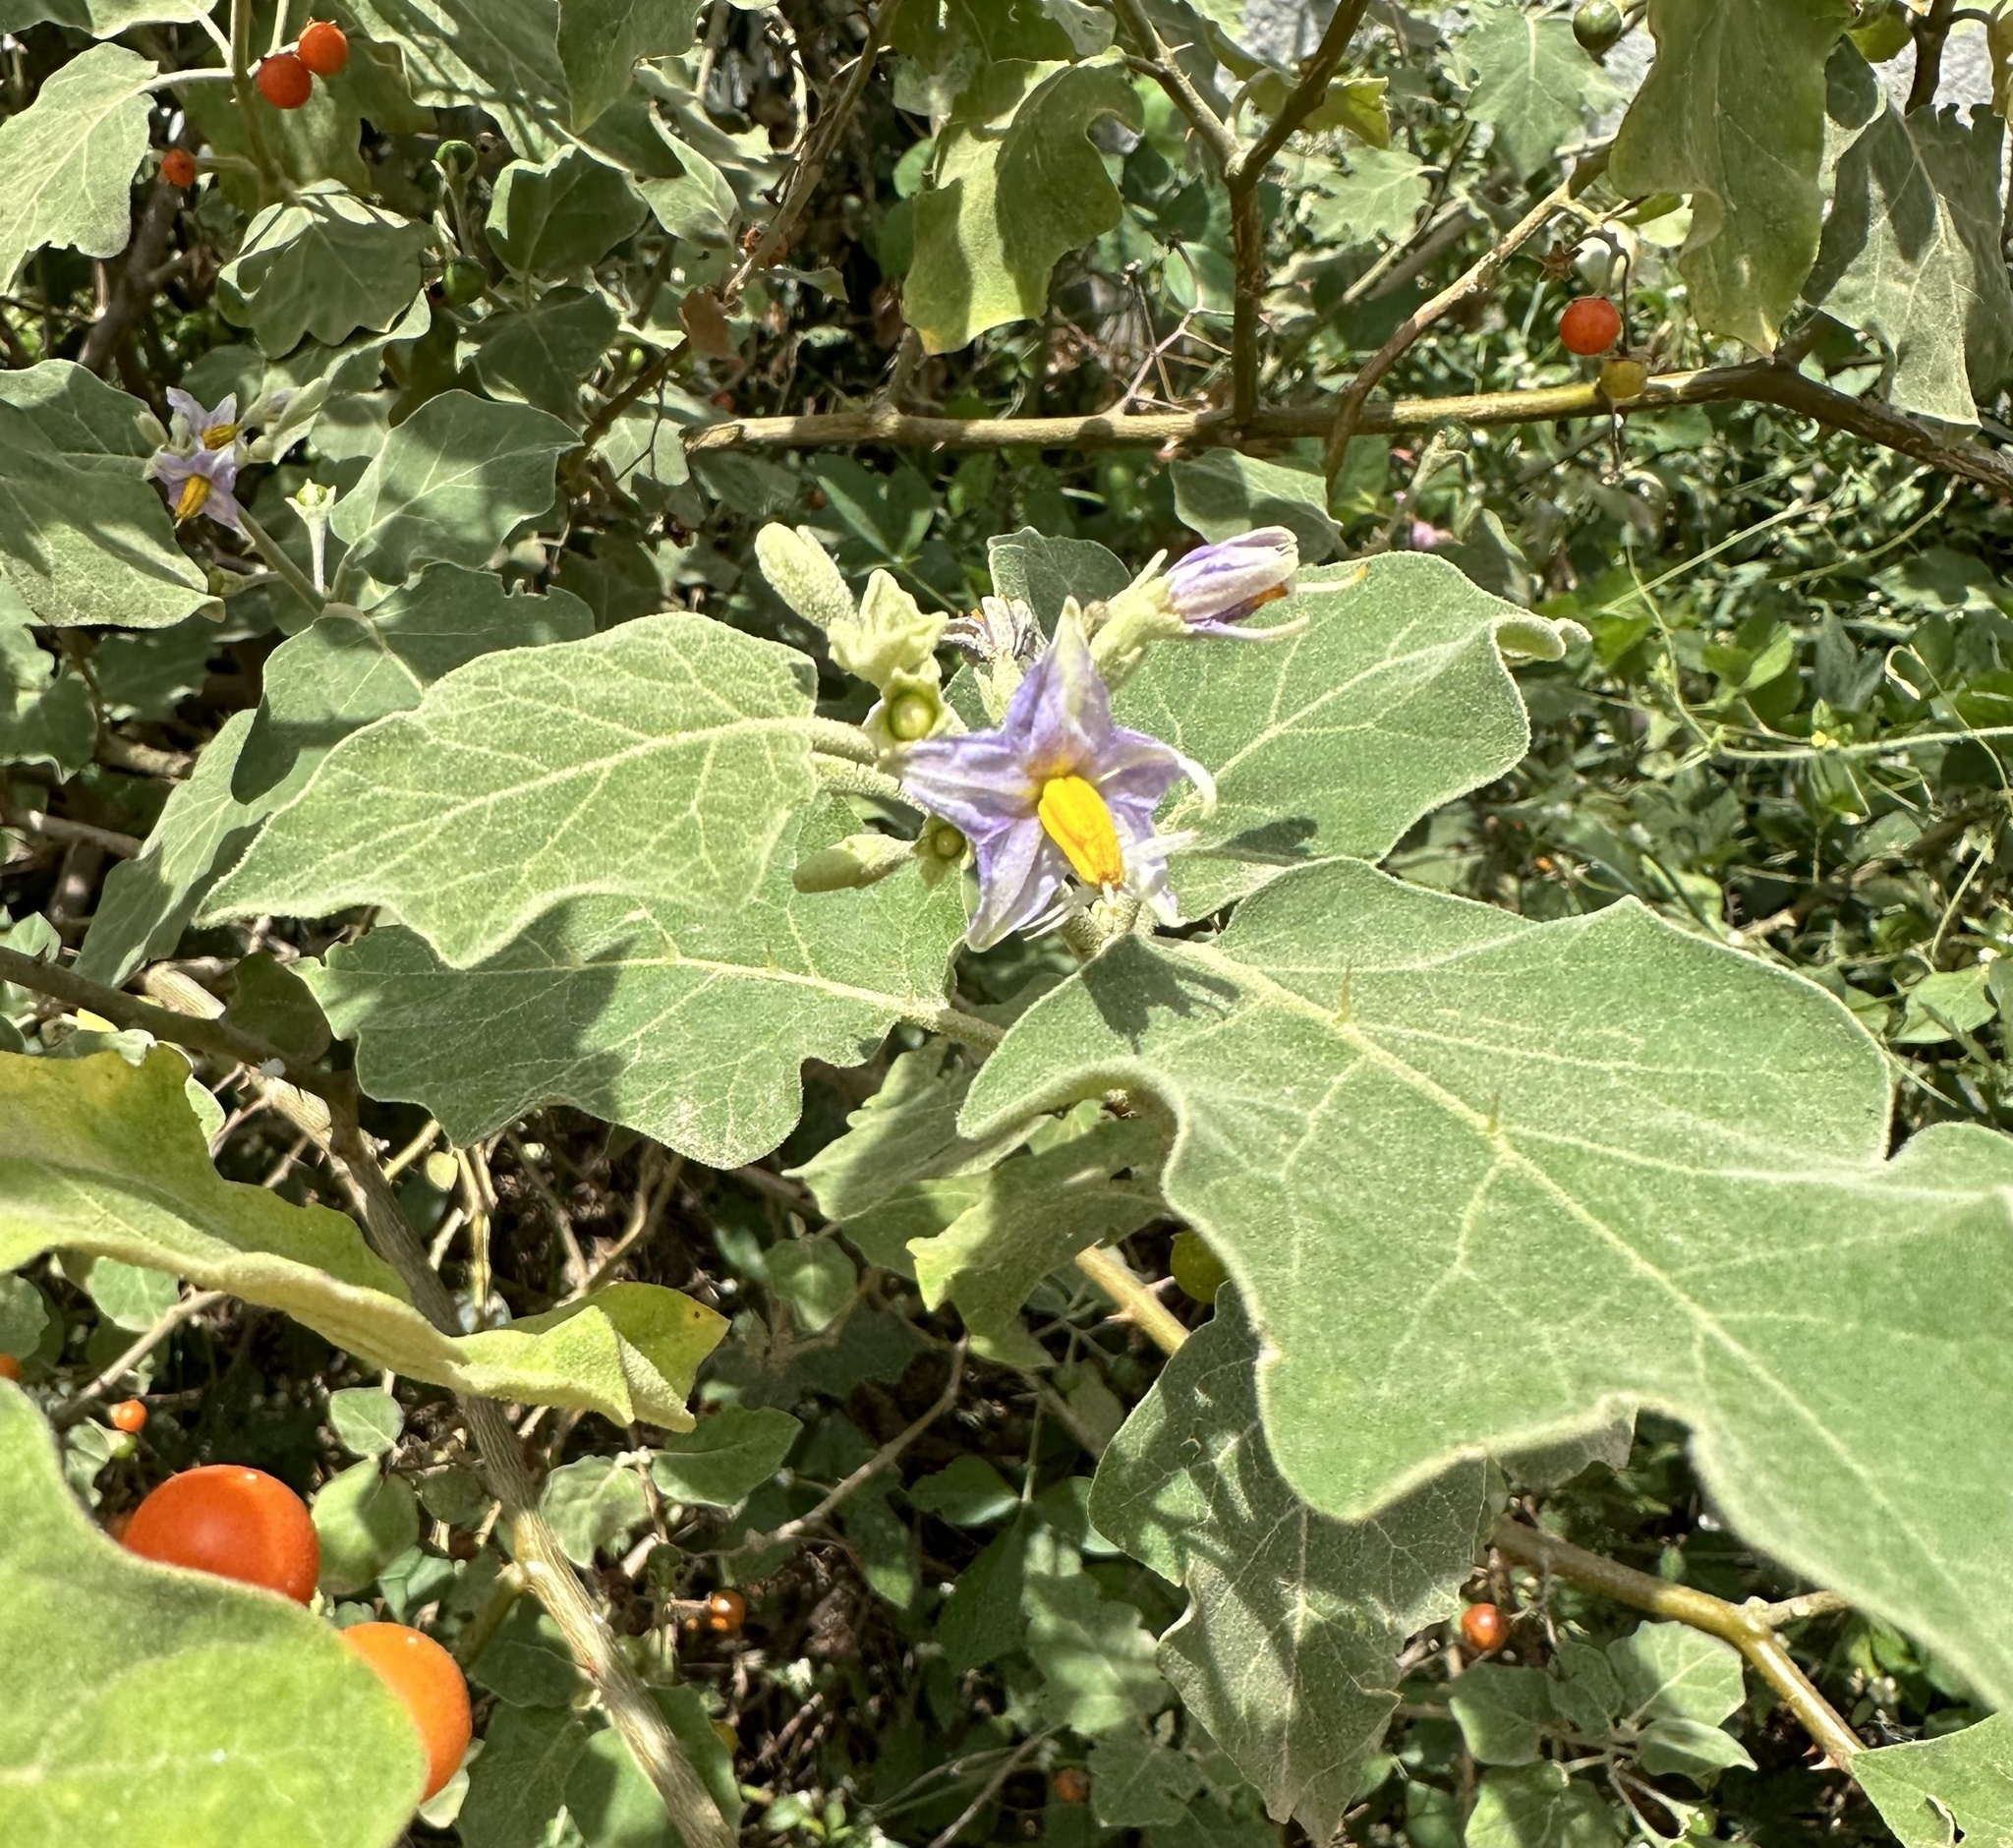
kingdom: Plantae
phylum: Tracheophyta
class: Magnoliopsida
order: Solanales
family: Solanaceae
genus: Solanum
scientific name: Solanum violaceum
